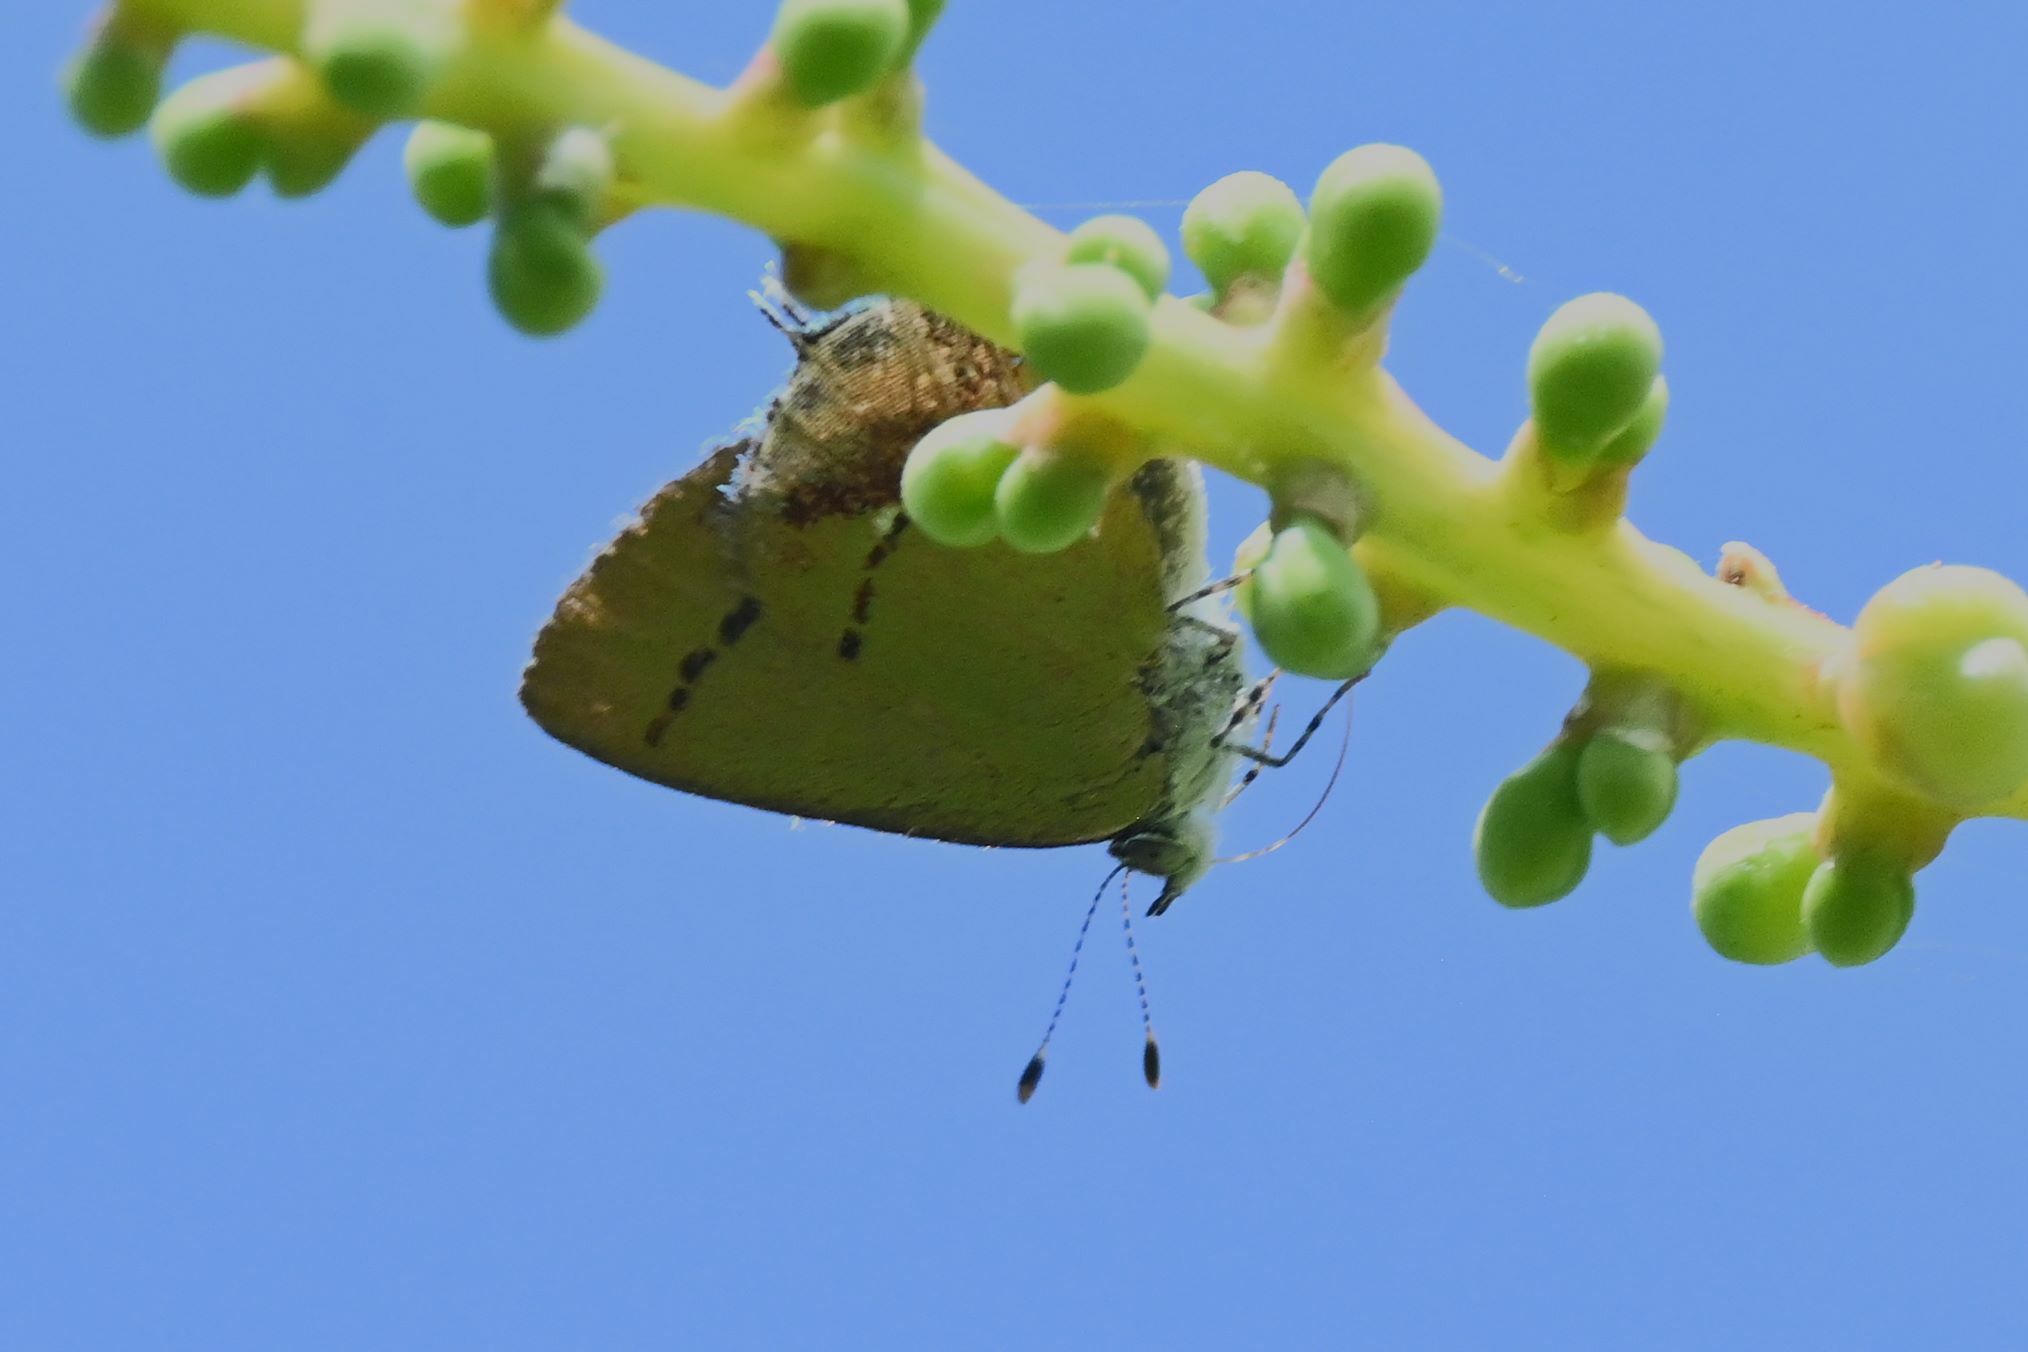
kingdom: Animalia
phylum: Arthropoda
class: Insecta
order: Lepidoptera
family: Lycaenidae
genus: Thecla
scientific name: Thecla maesites
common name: Verde azul hairstreak
